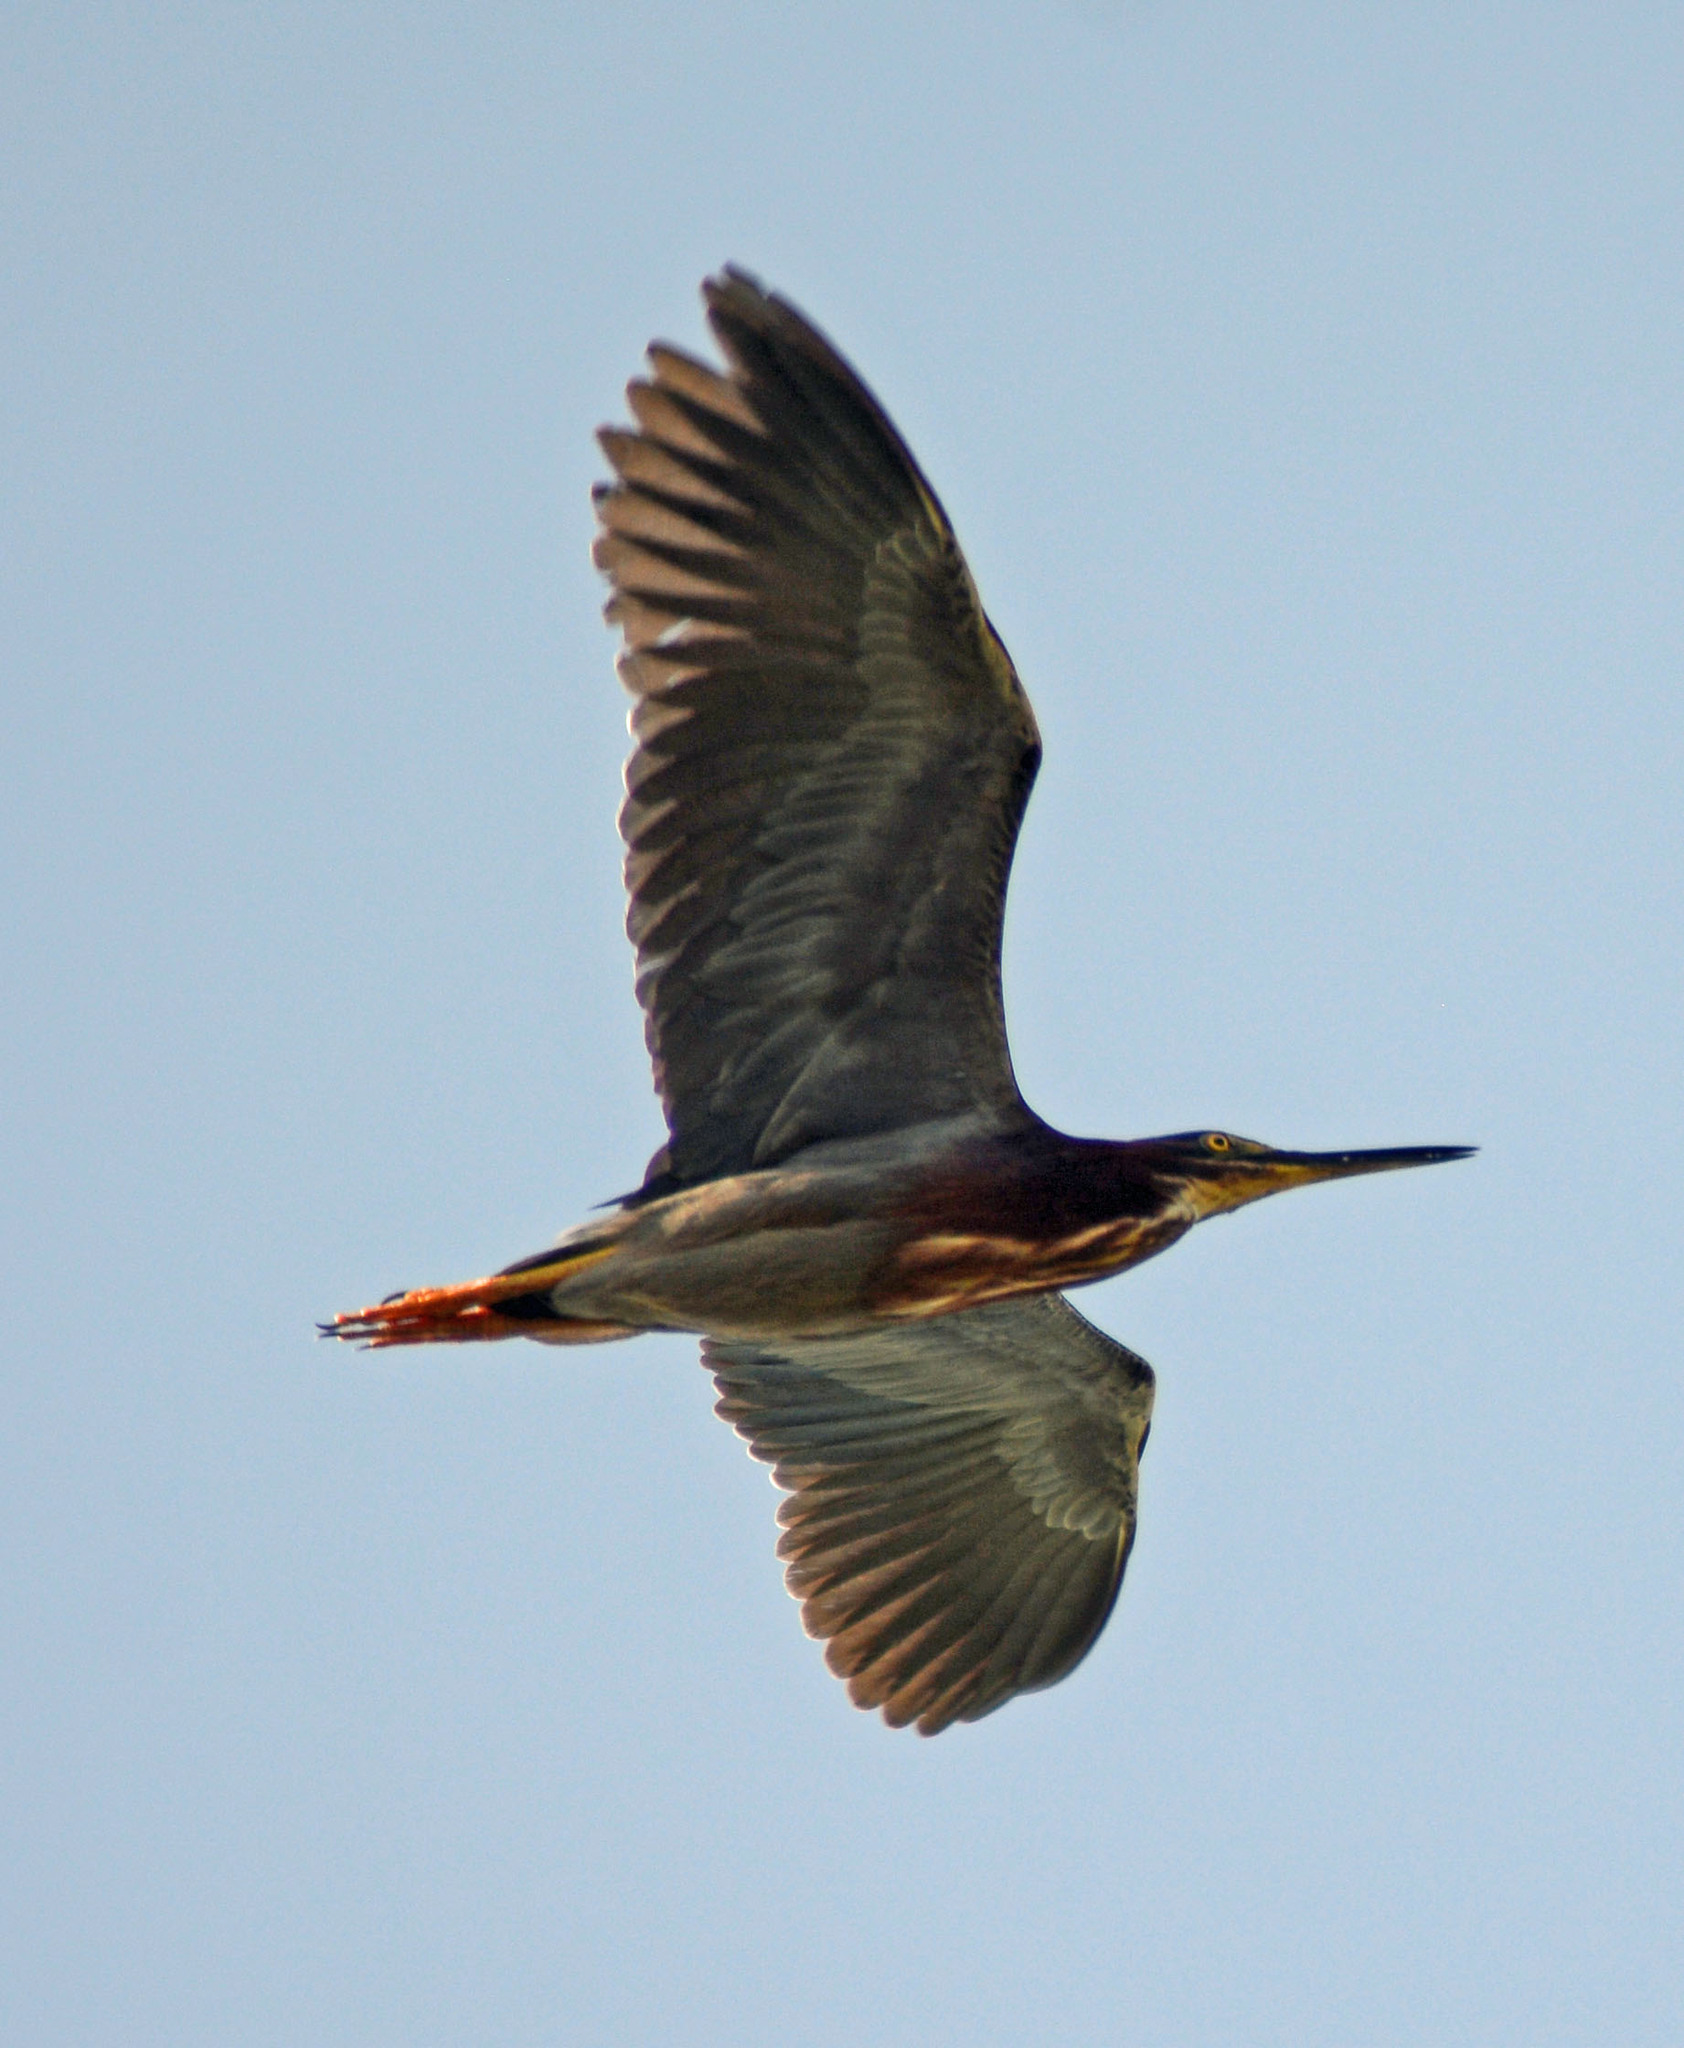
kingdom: Animalia
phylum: Chordata
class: Aves
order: Pelecaniformes
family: Ardeidae
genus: Butorides
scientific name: Butorides virescens
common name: Green heron
